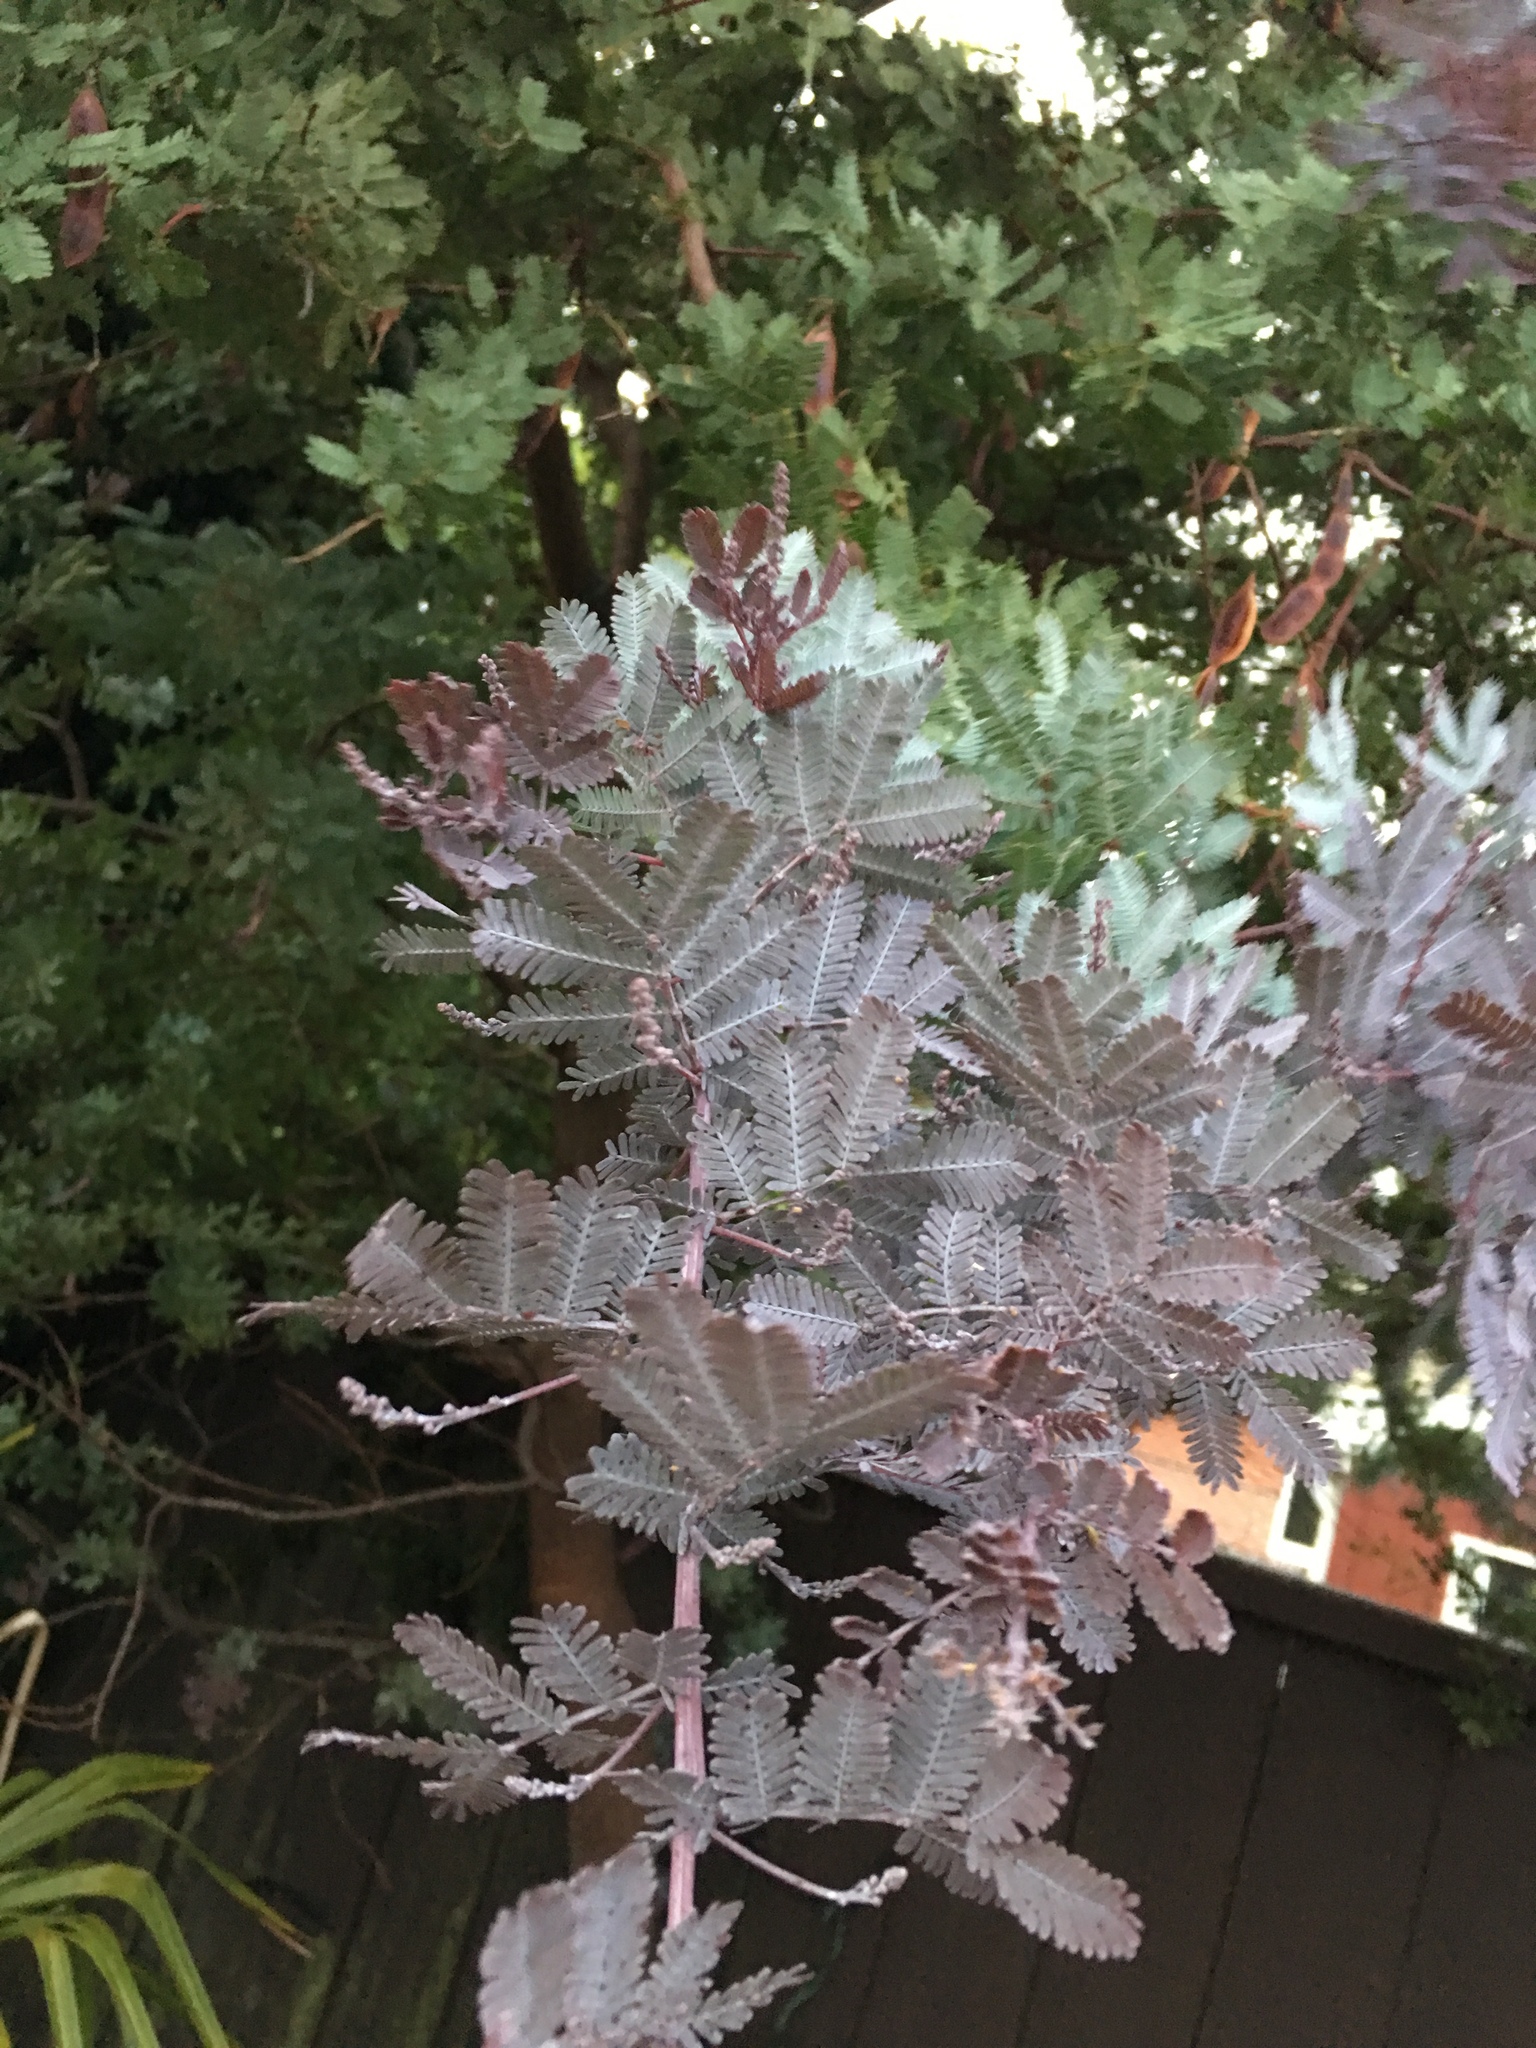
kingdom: Plantae
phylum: Tracheophyta
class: Magnoliopsida
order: Fabales
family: Fabaceae
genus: Acacia
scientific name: Acacia baileyana
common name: Cootamundra wattle
